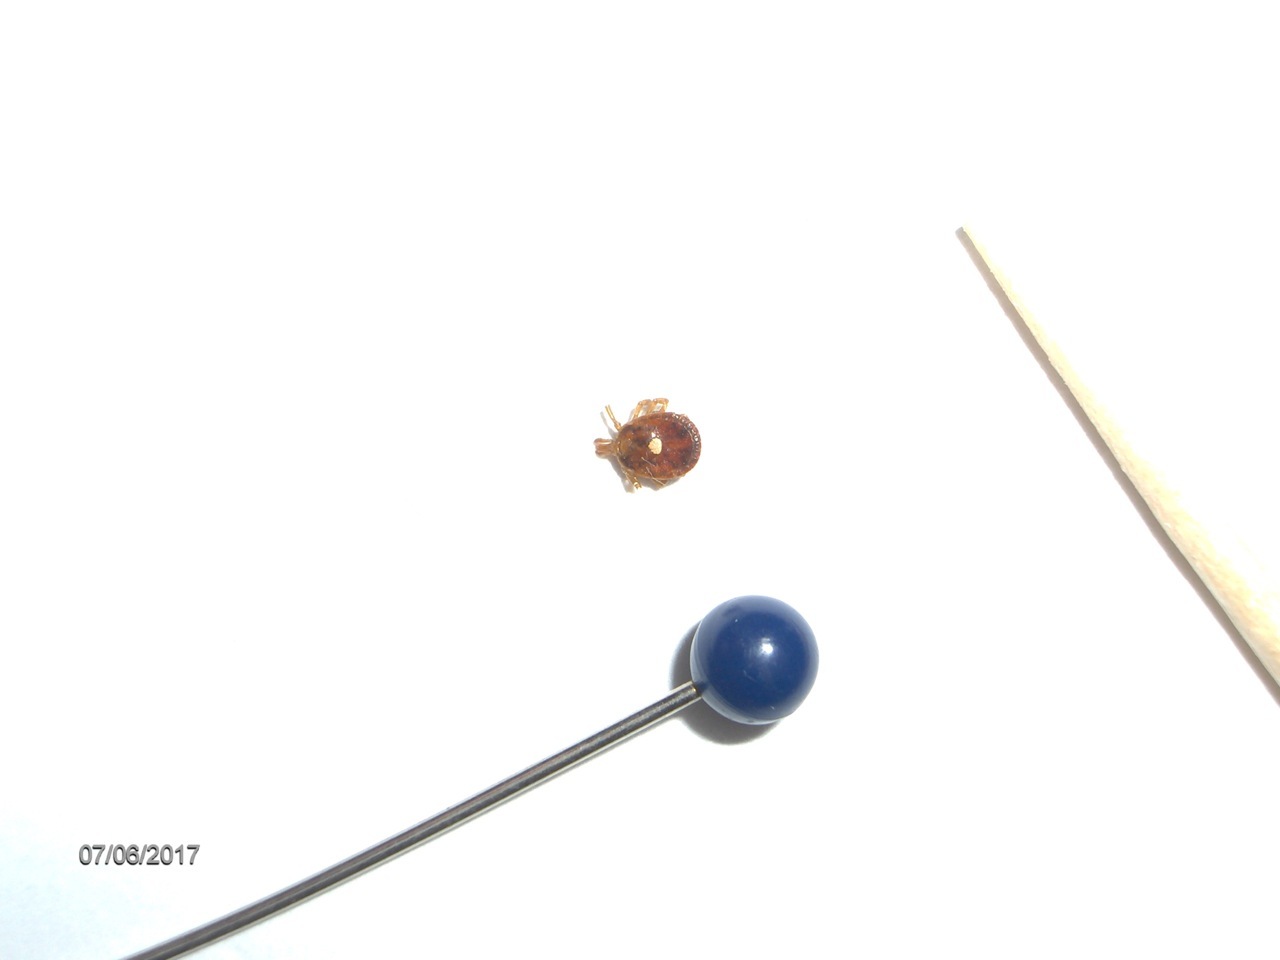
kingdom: Animalia
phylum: Arthropoda
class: Arachnida
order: Ixodida
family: Ixodidae
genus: Amblyomma
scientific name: Amblyomma americanum
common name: Lone star tick
